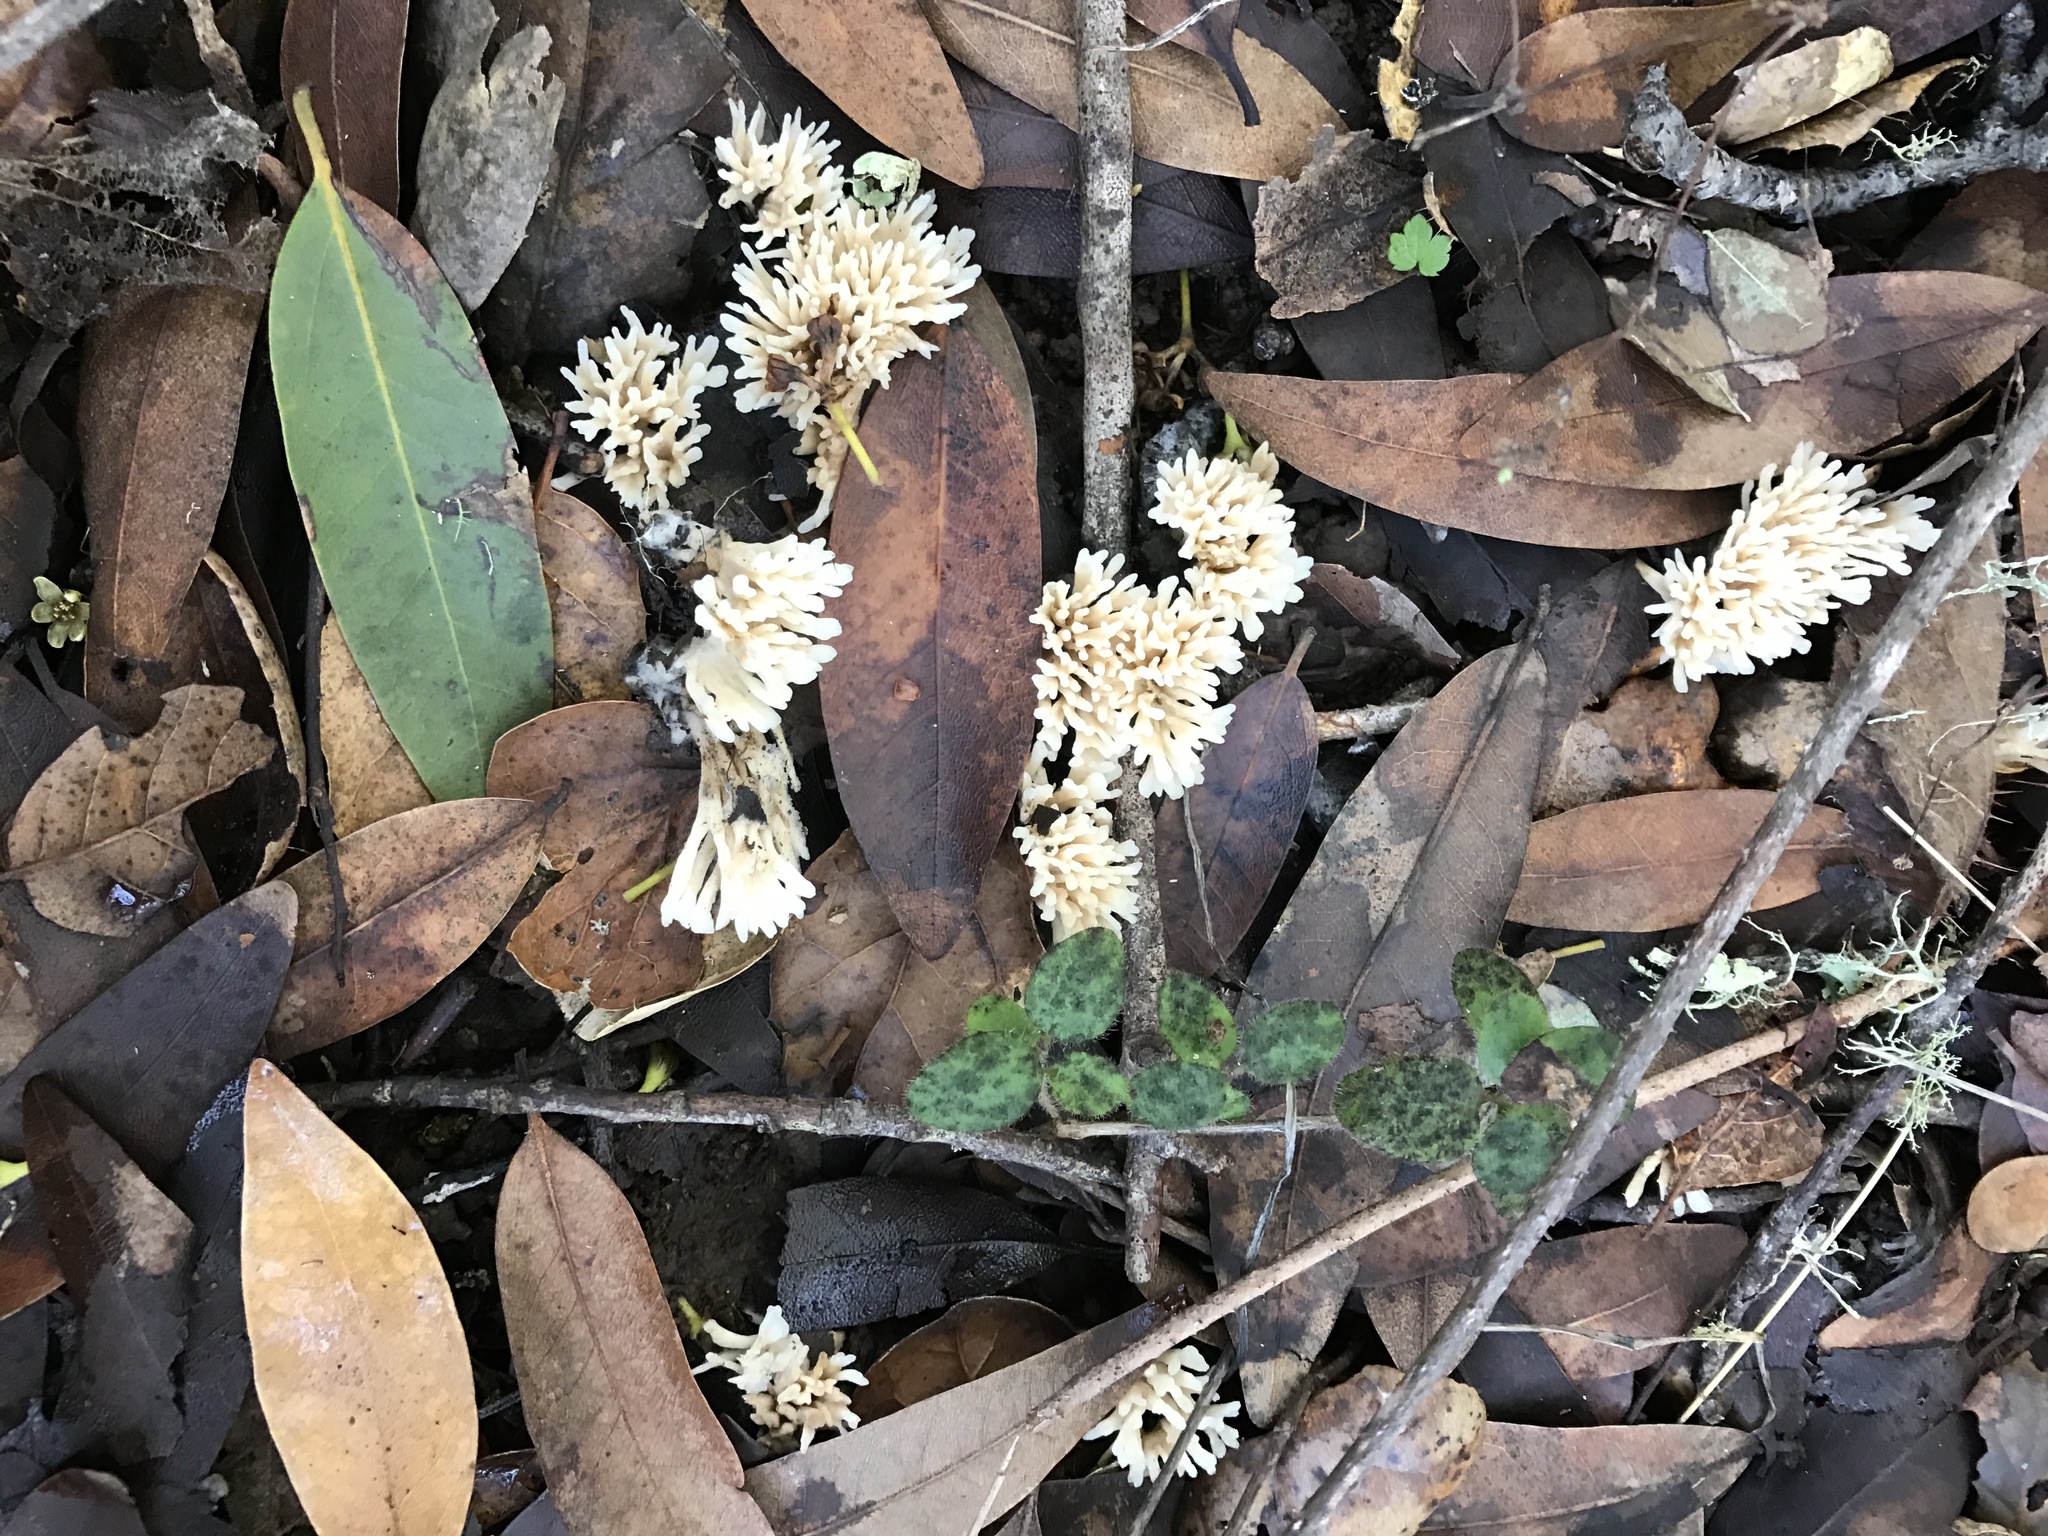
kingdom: Fungi
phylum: Basidiomycota
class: Agaricomycetes
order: Tremellodendropsidales
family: Tremellodendropsidaceae
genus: Tremellodendropsis
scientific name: Tremellodendropsis tuberosa
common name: Ashen coral
